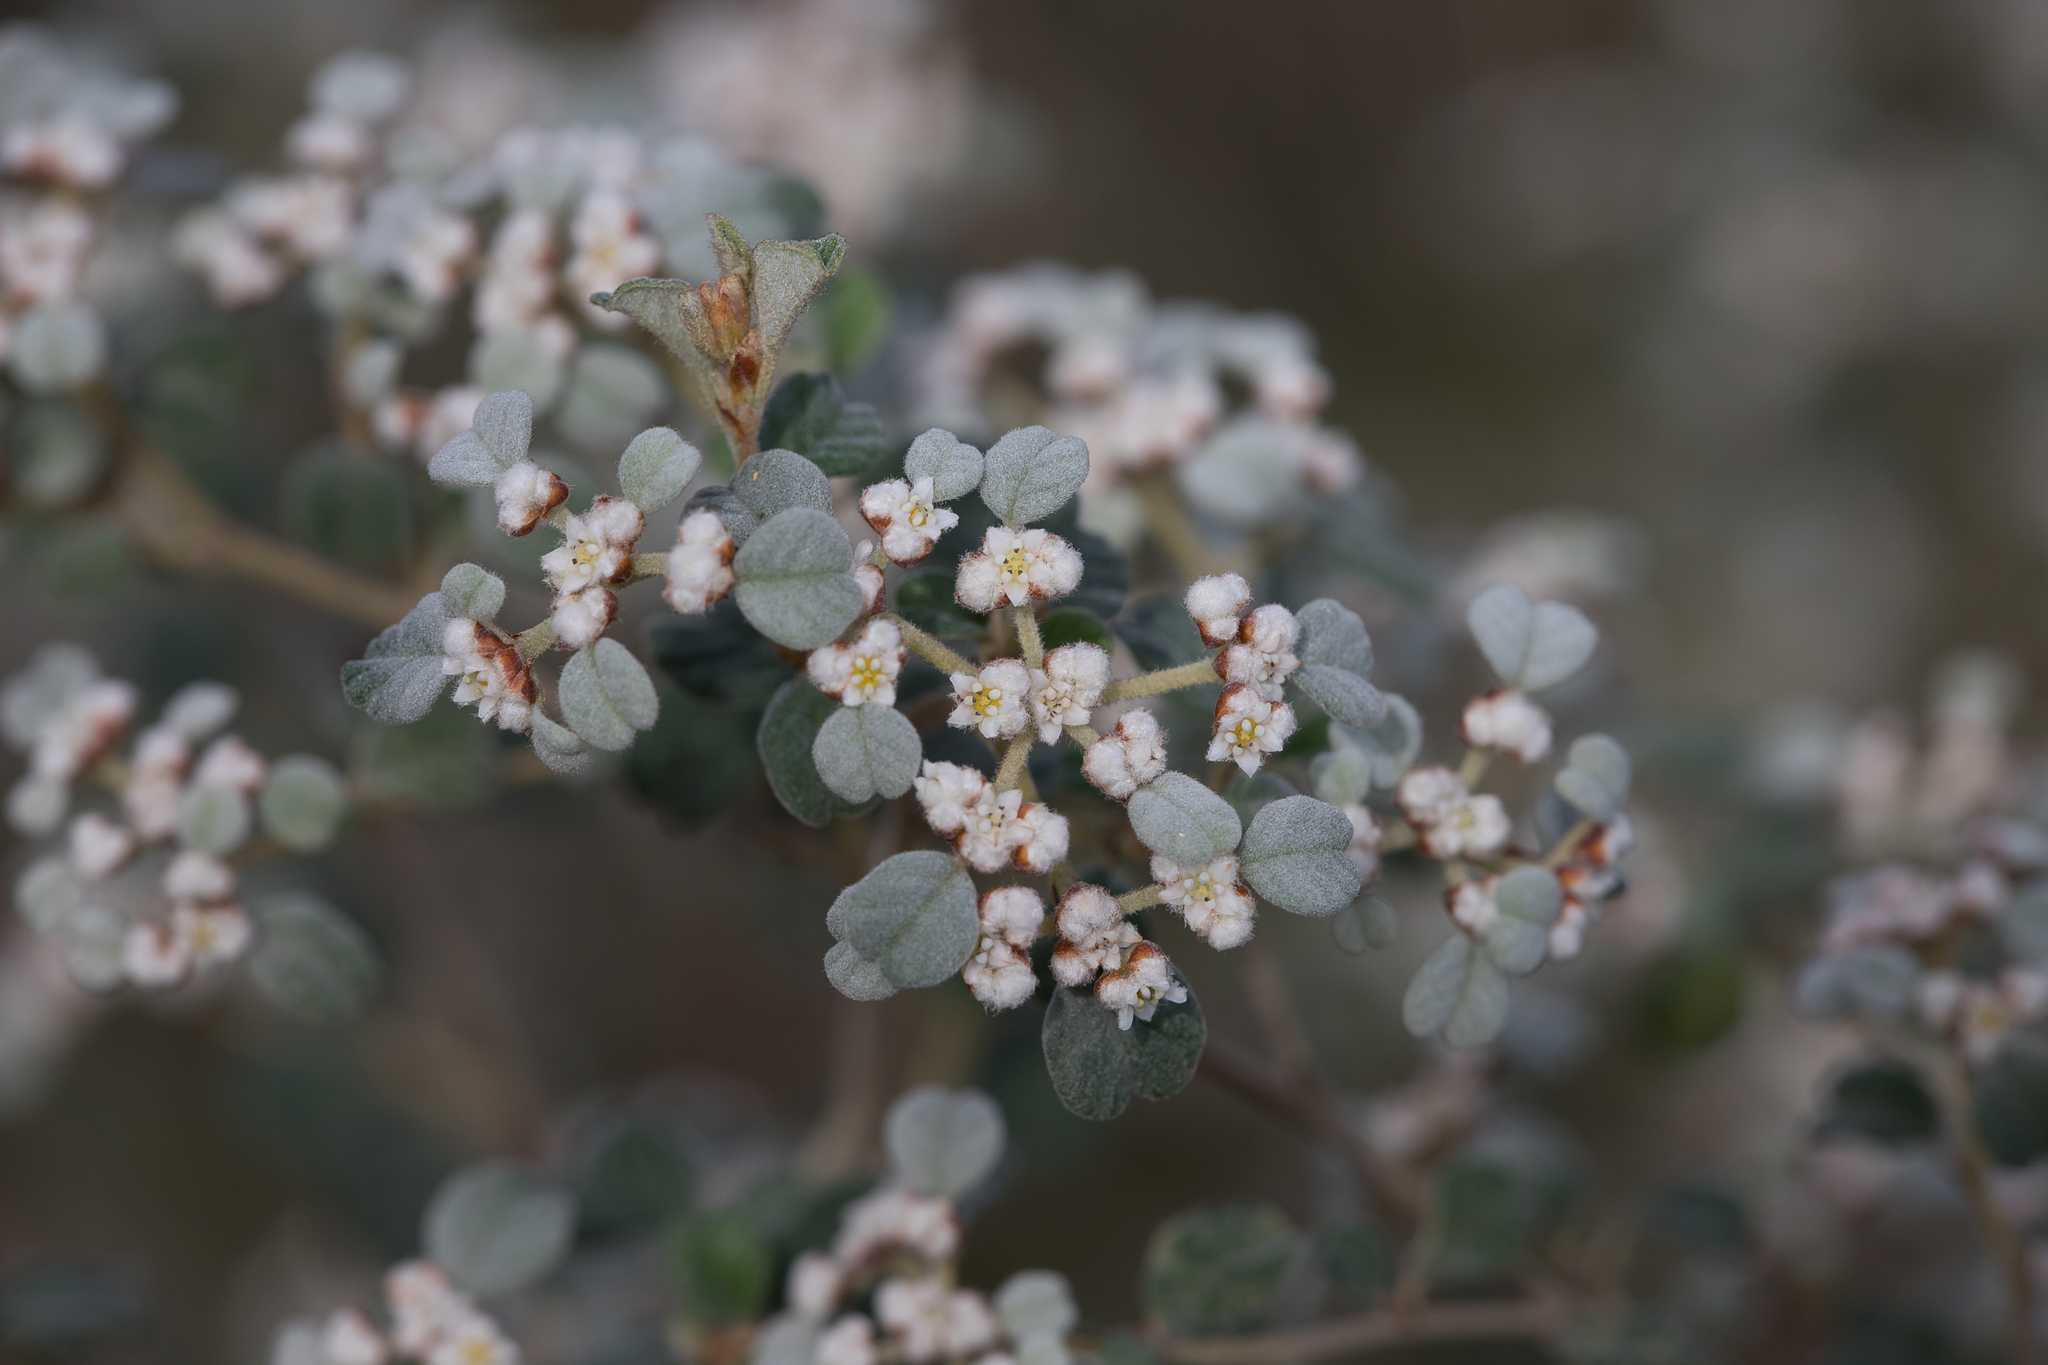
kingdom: Plantae
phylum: Tracheophyta
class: Magnoliopsida
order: Rosales
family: Rhamnaceae
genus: Spyridium
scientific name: Spyridium parvifolium
